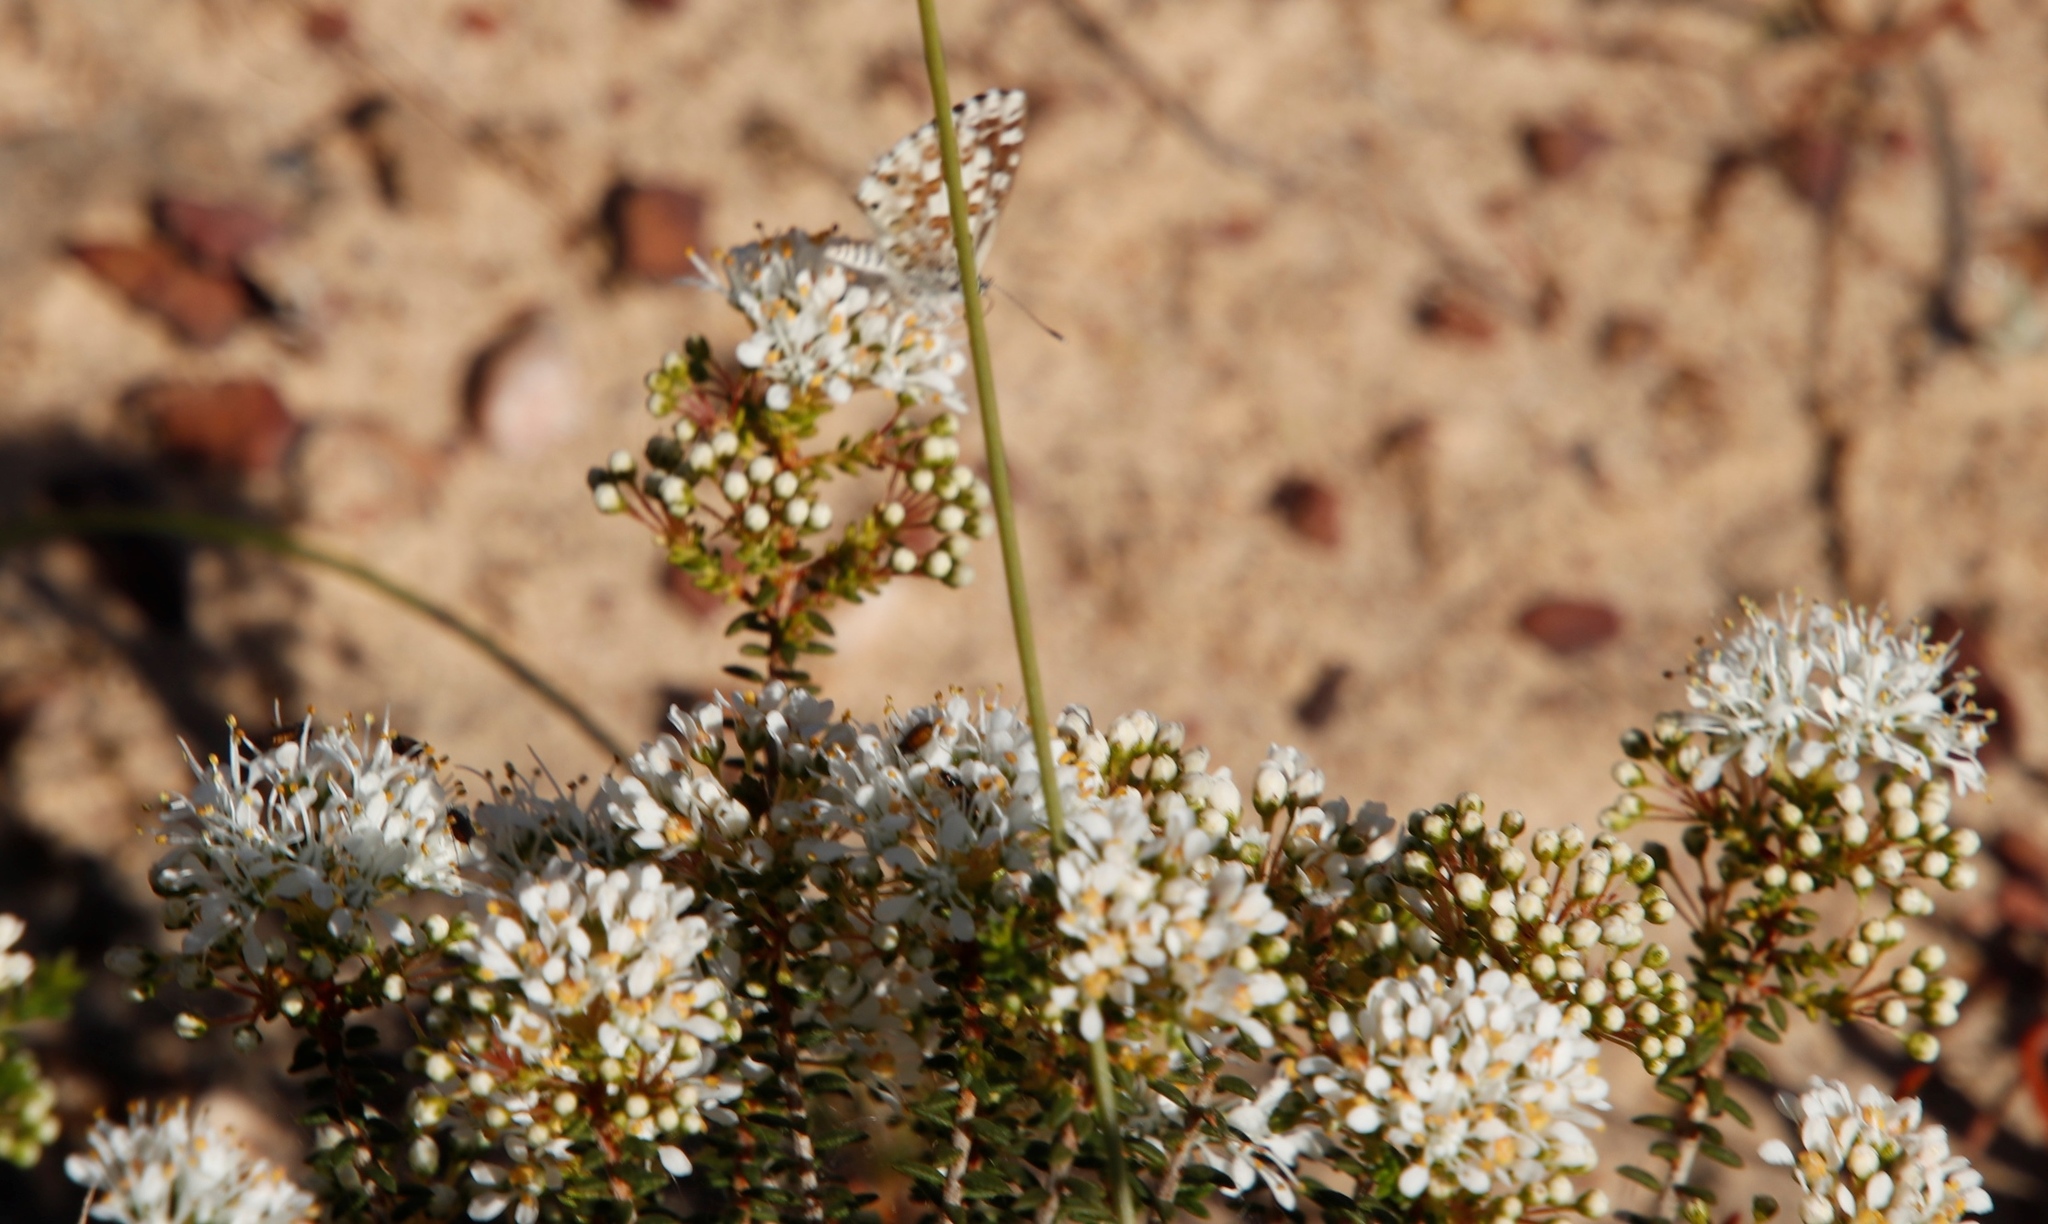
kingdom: Animalia
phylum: Arthropoda
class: Insecta
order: Lepidoptera
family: Lycaenidae
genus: Tarucus
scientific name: Tarucus thespis
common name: Vivid dotted blue
